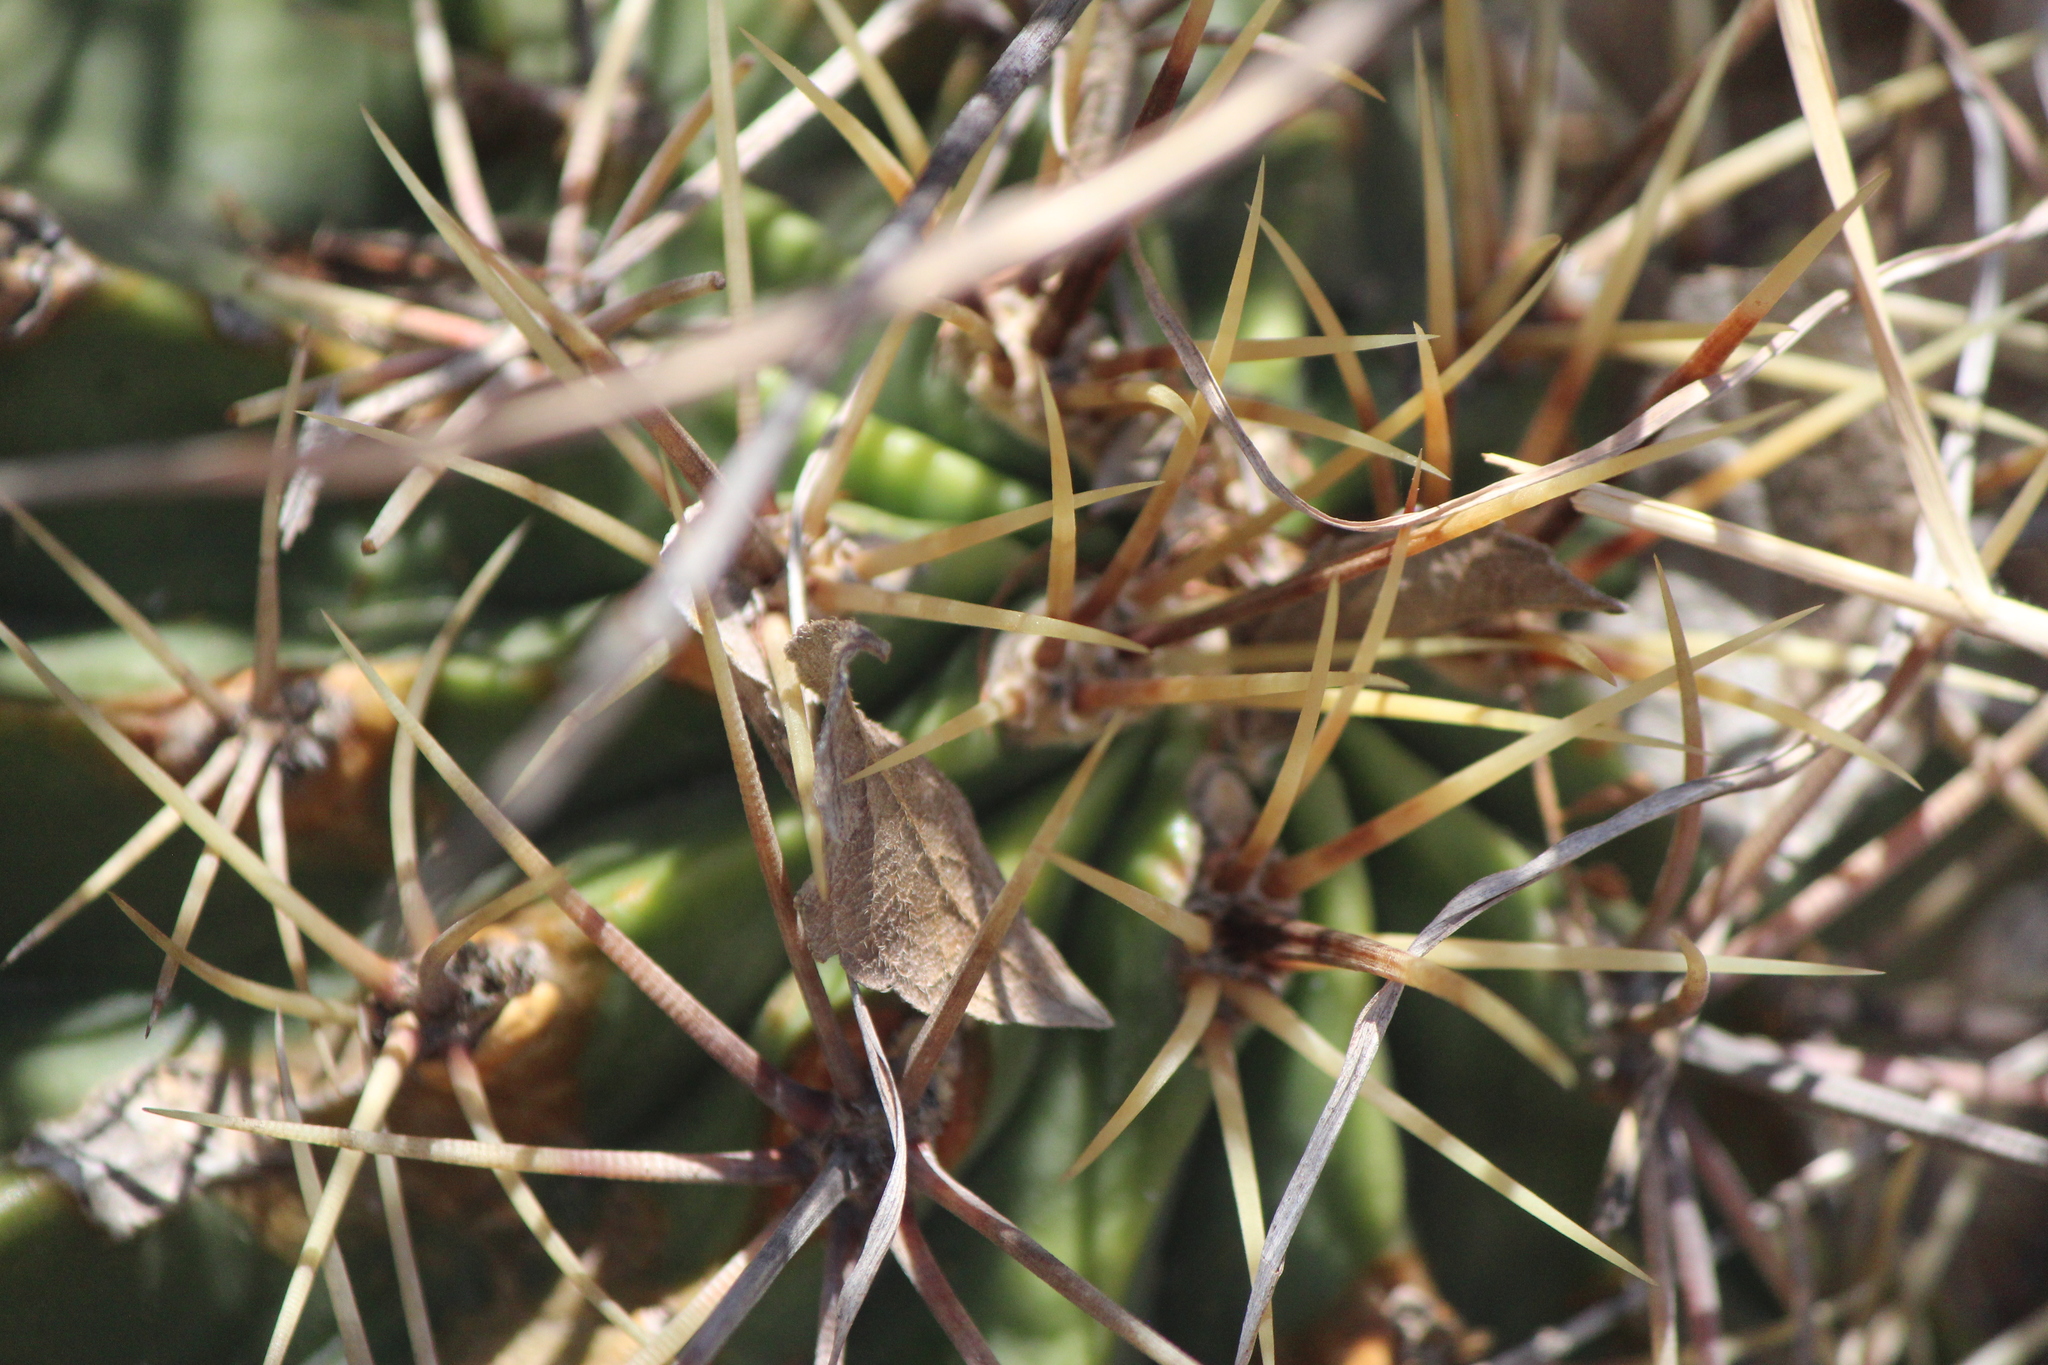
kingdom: Plantae
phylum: Tracheophyta
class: Magnoliopsida
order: Caryophyllales
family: Cactaceae
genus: Bisnaga
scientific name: Bisnaga histrix
